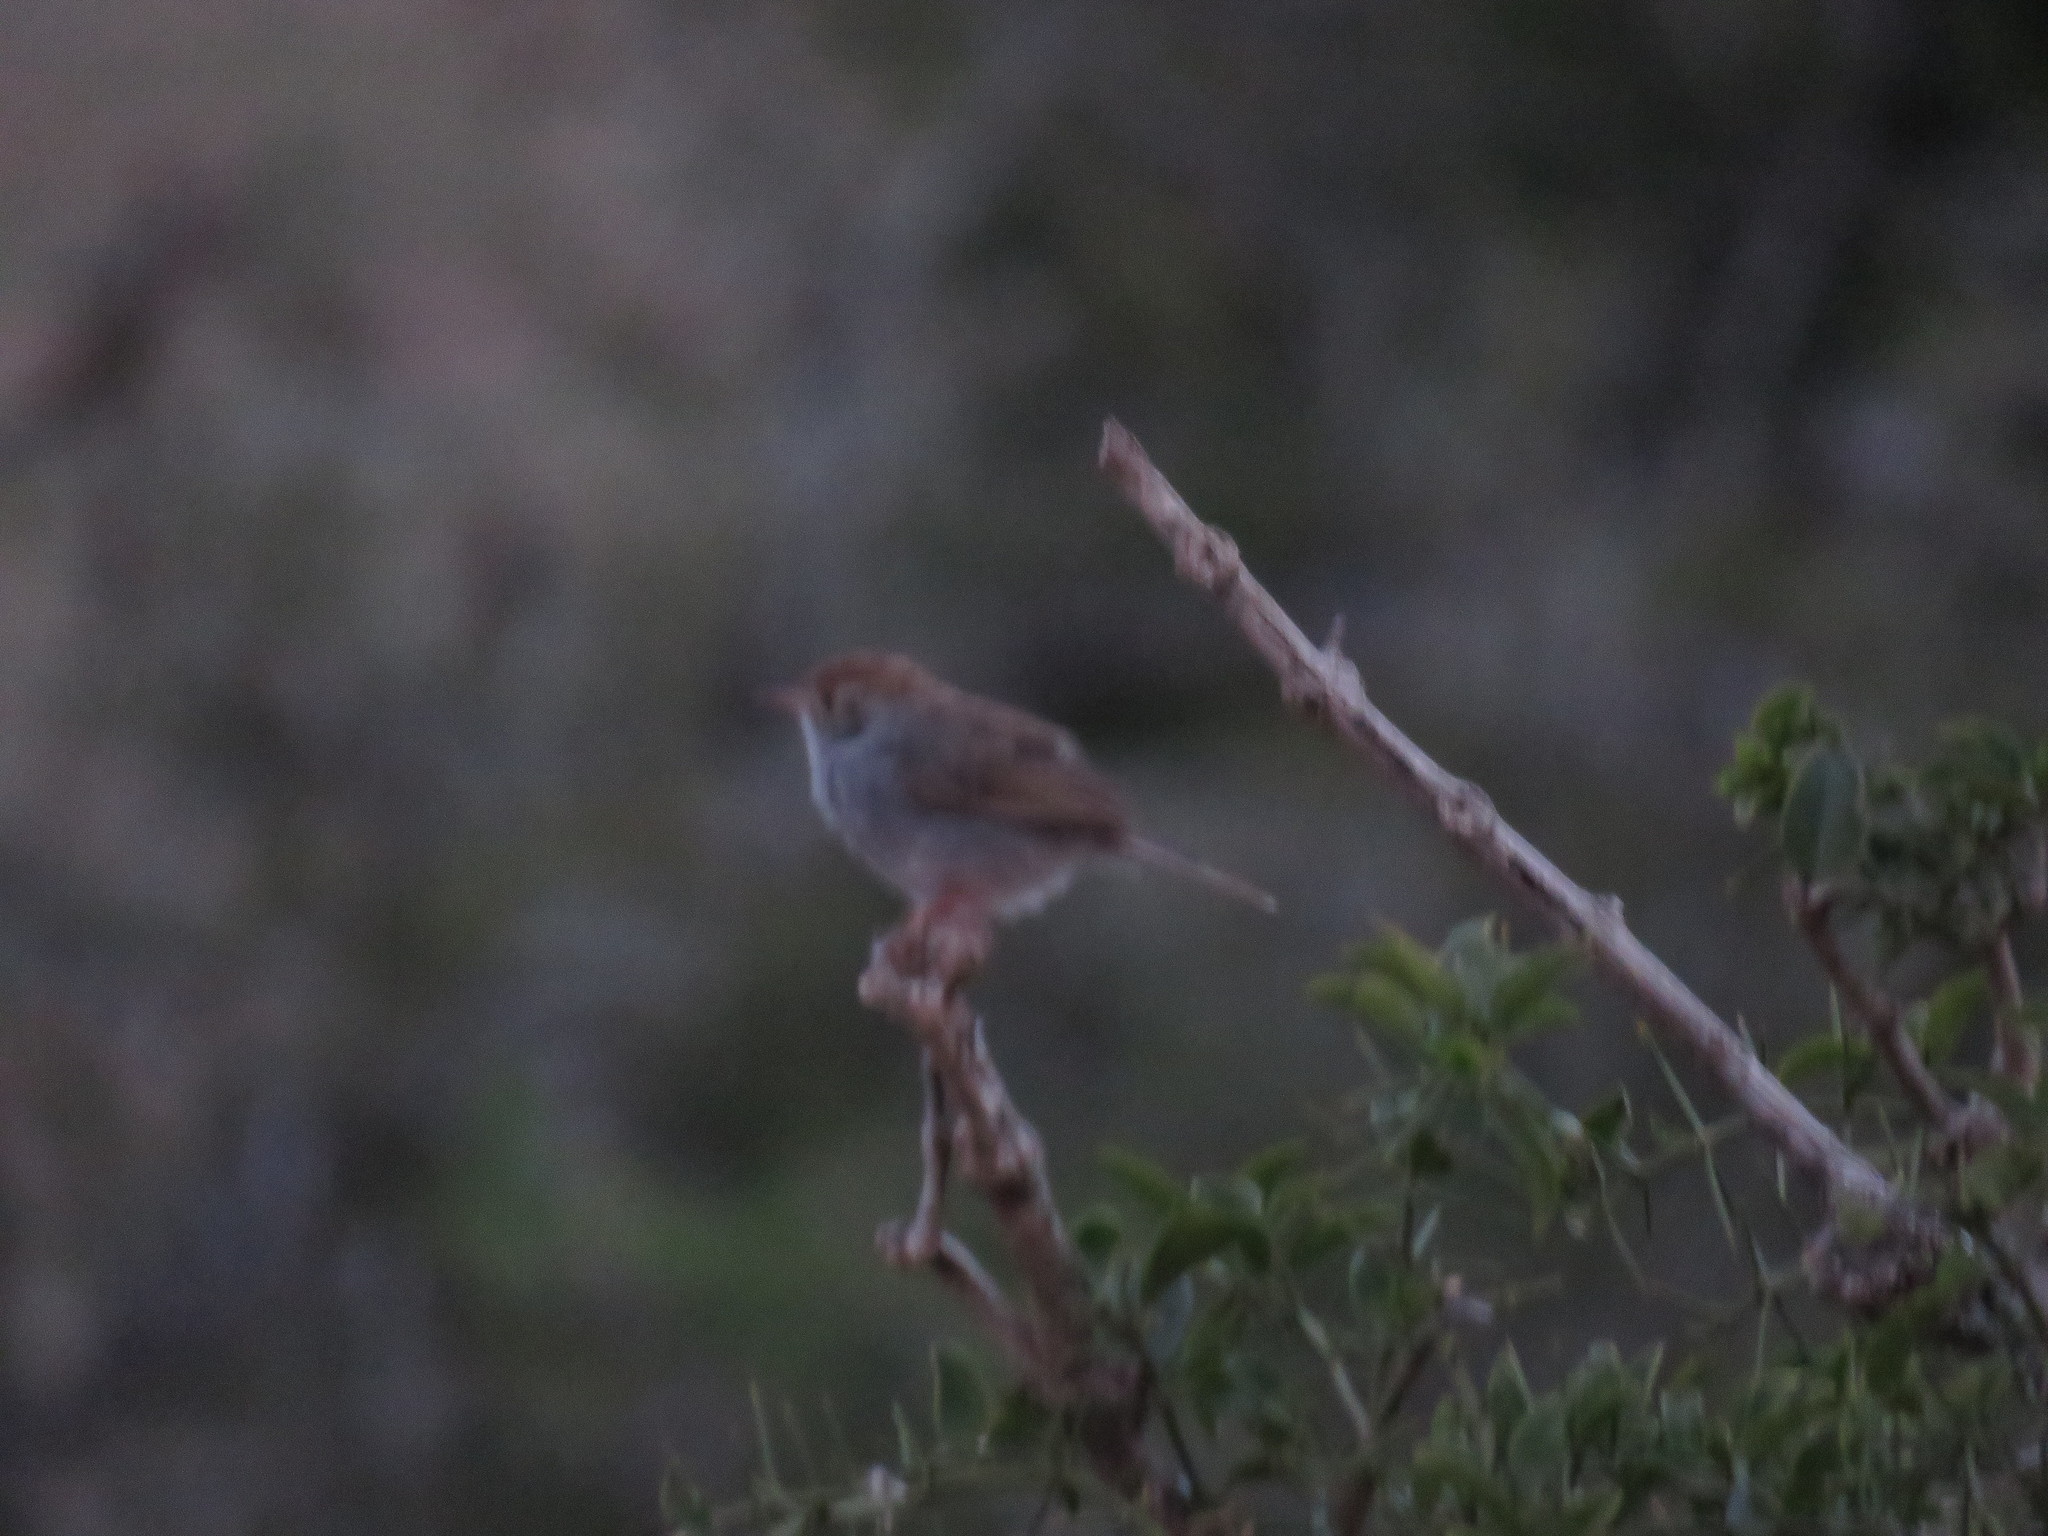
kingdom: Animalia
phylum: Chordata
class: Aves
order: Passeriformes
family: Cisticolidae
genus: Cisticola
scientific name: Cisticola fulvicapilla
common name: Neddicky
